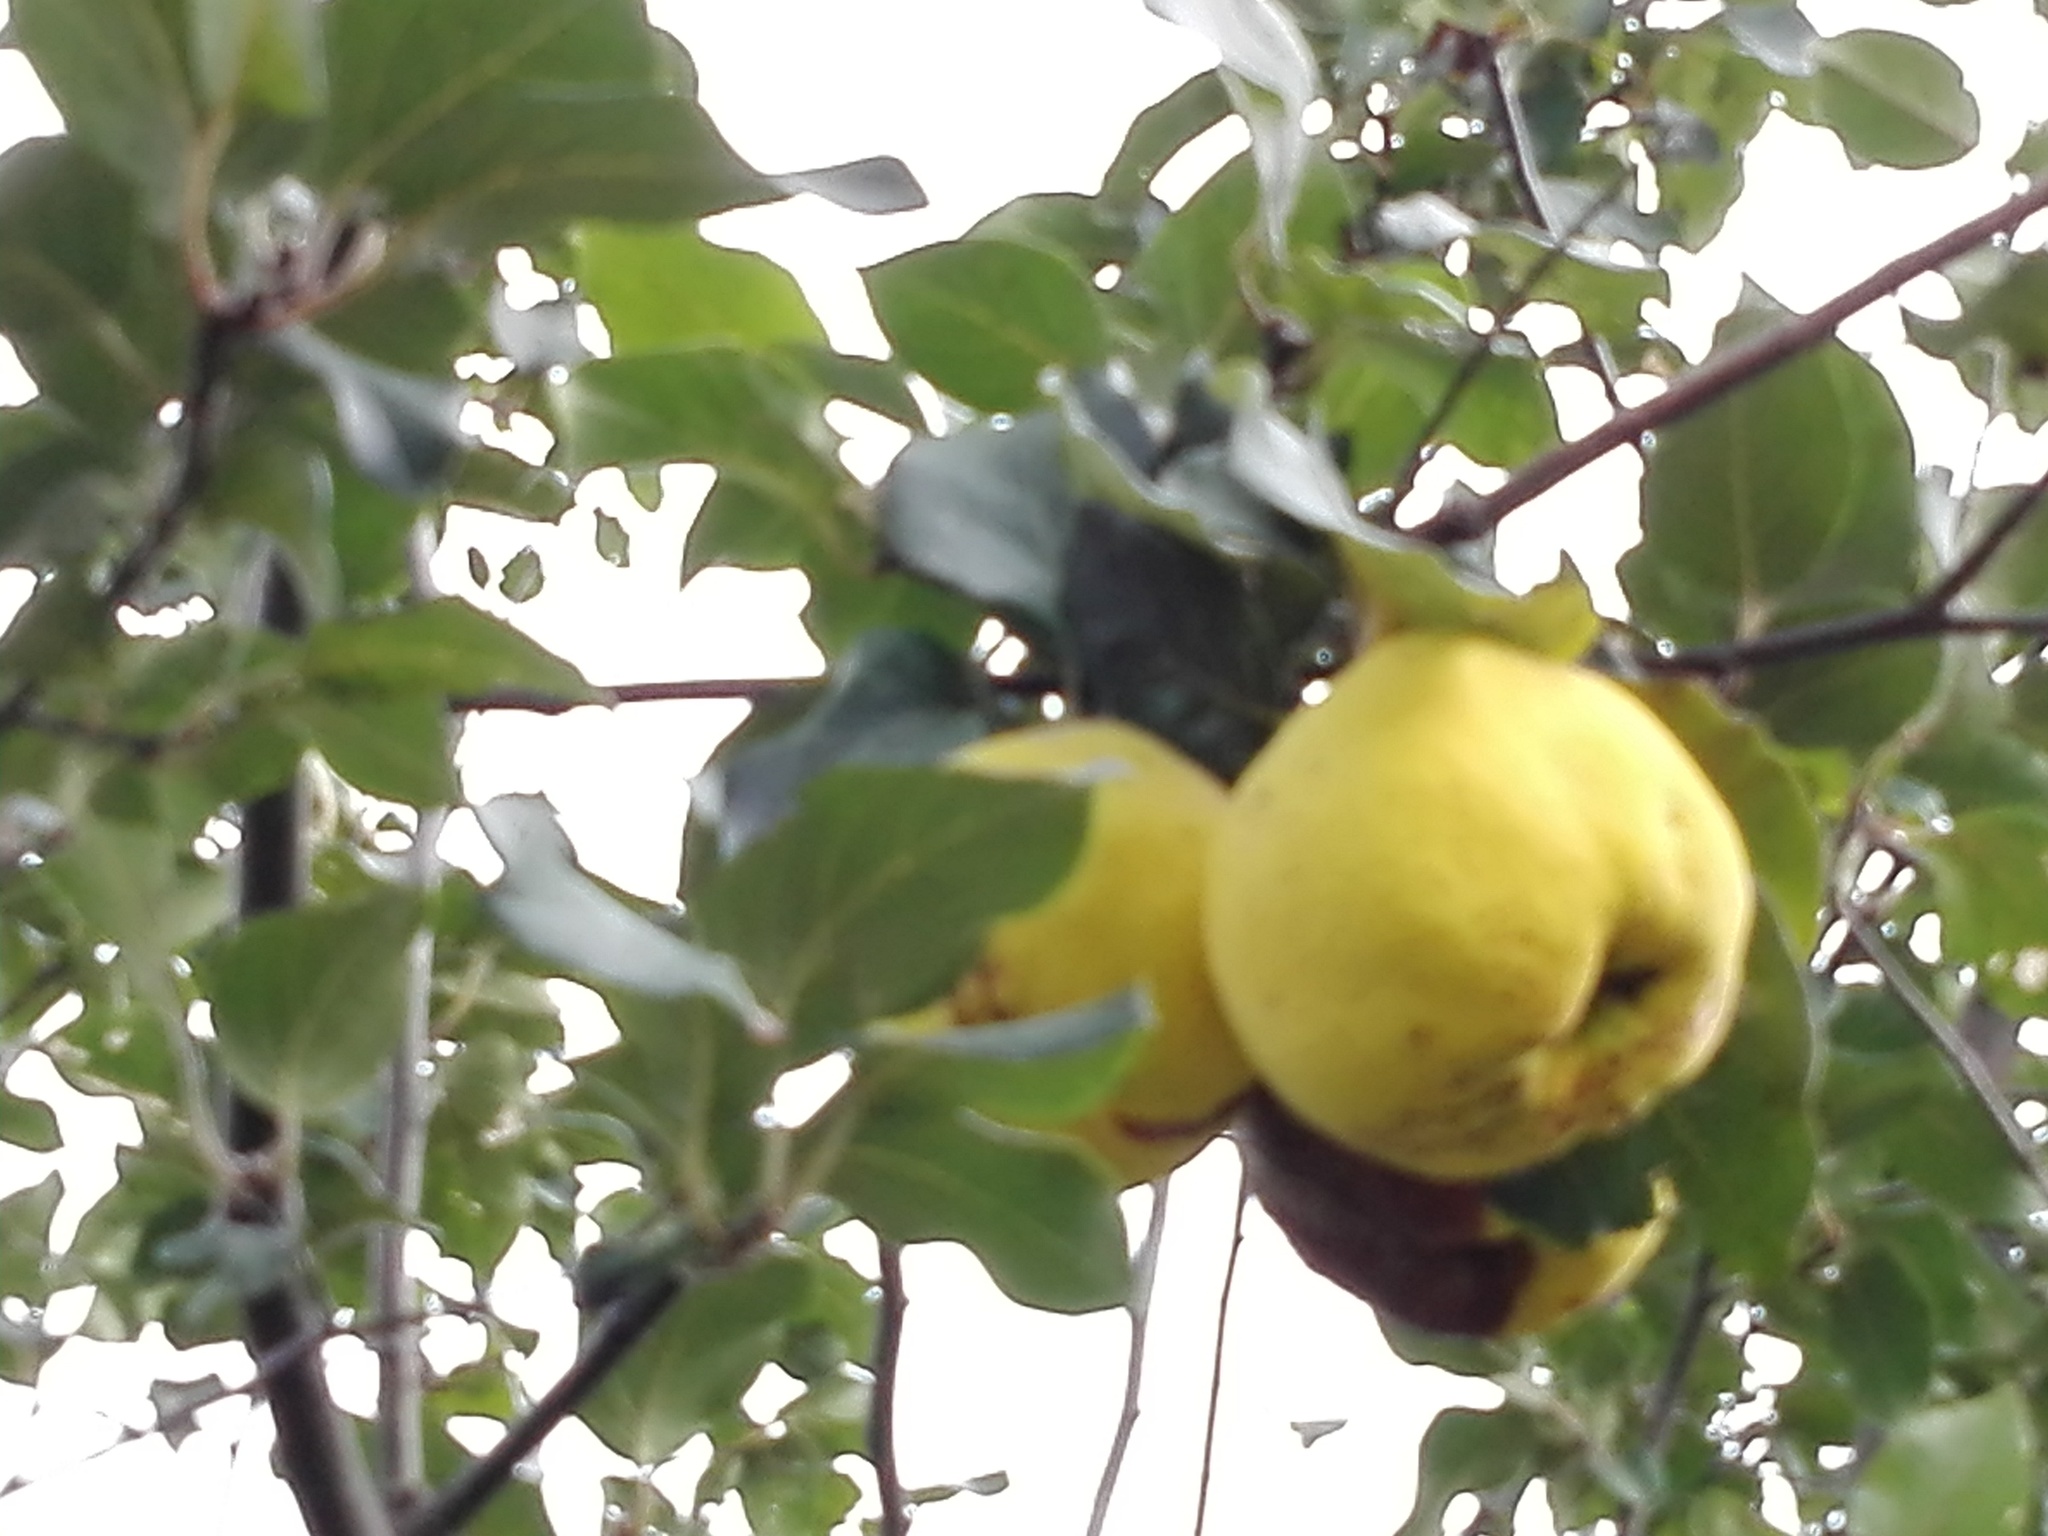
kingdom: Plantae
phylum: Tracheophyta
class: Magnoliopsida
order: Rosales
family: Rosaceae
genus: Cydonia
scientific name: Cydonia oblonga
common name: Quince
